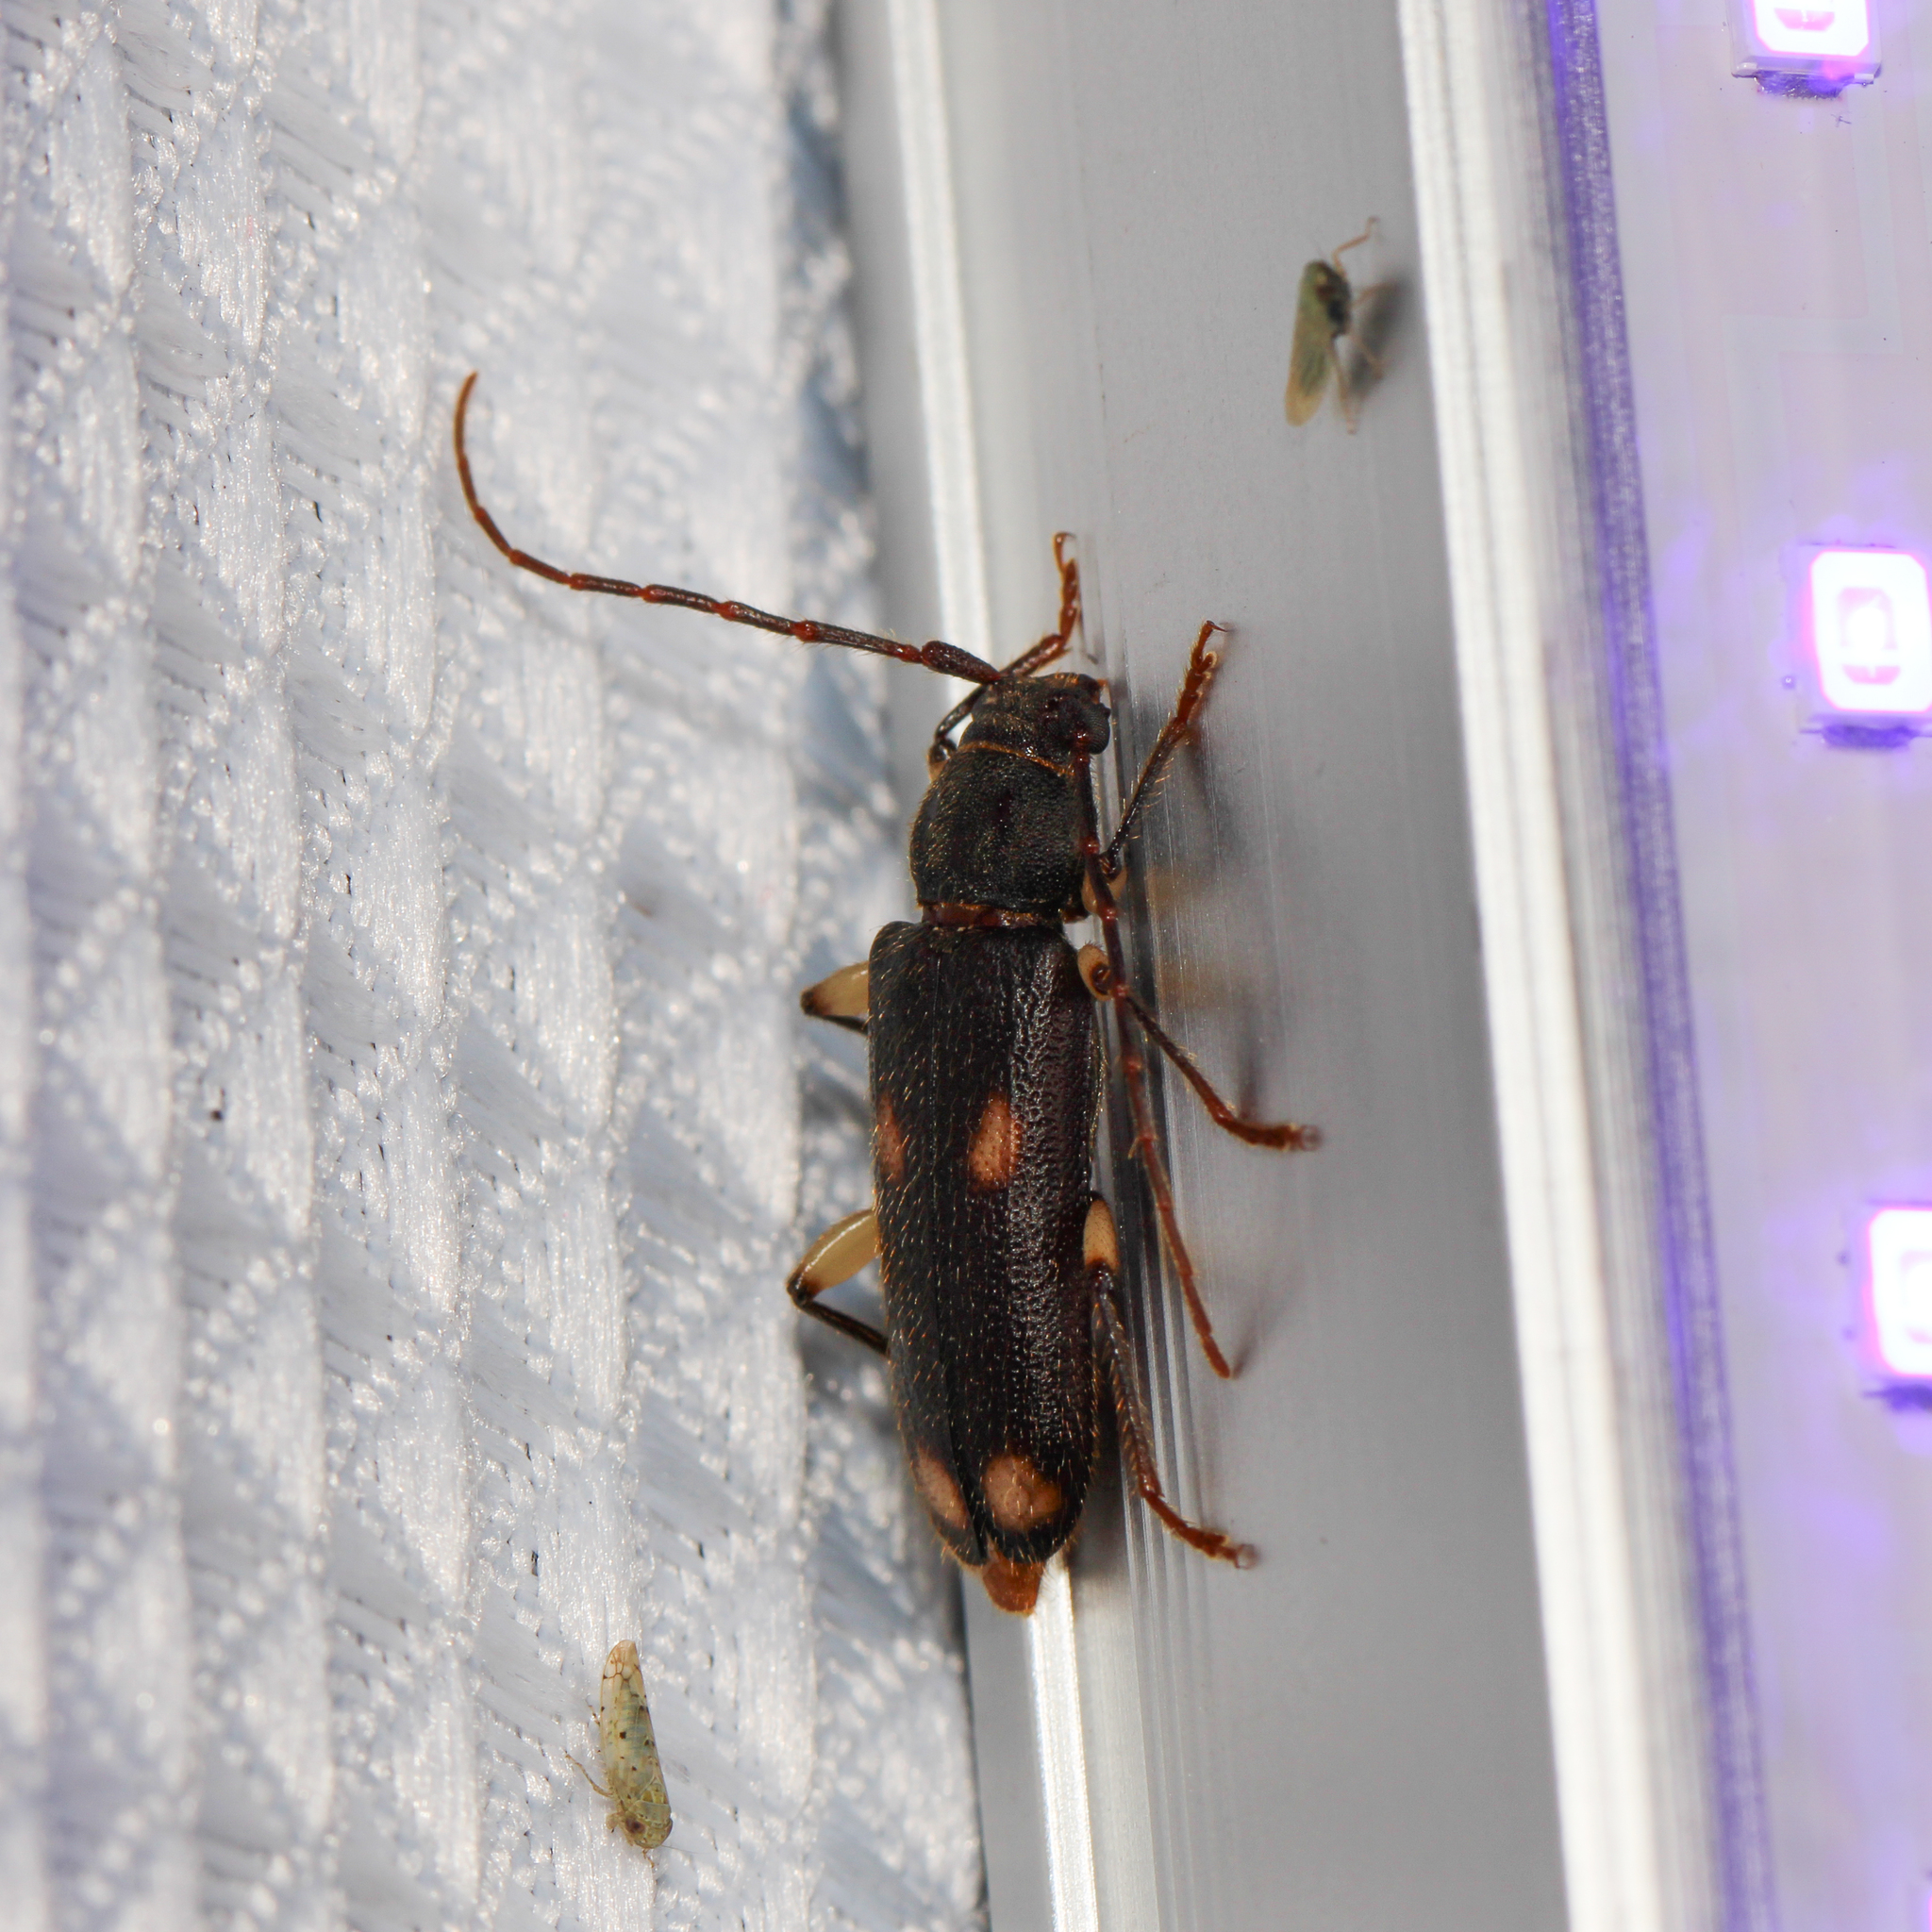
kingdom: Animalia
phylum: Arthropoda
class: Insecta
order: Coleoptera
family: Cerambycidae
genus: Tylonotus
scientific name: Tylonotus bimaculatus
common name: Ash and privet borer
